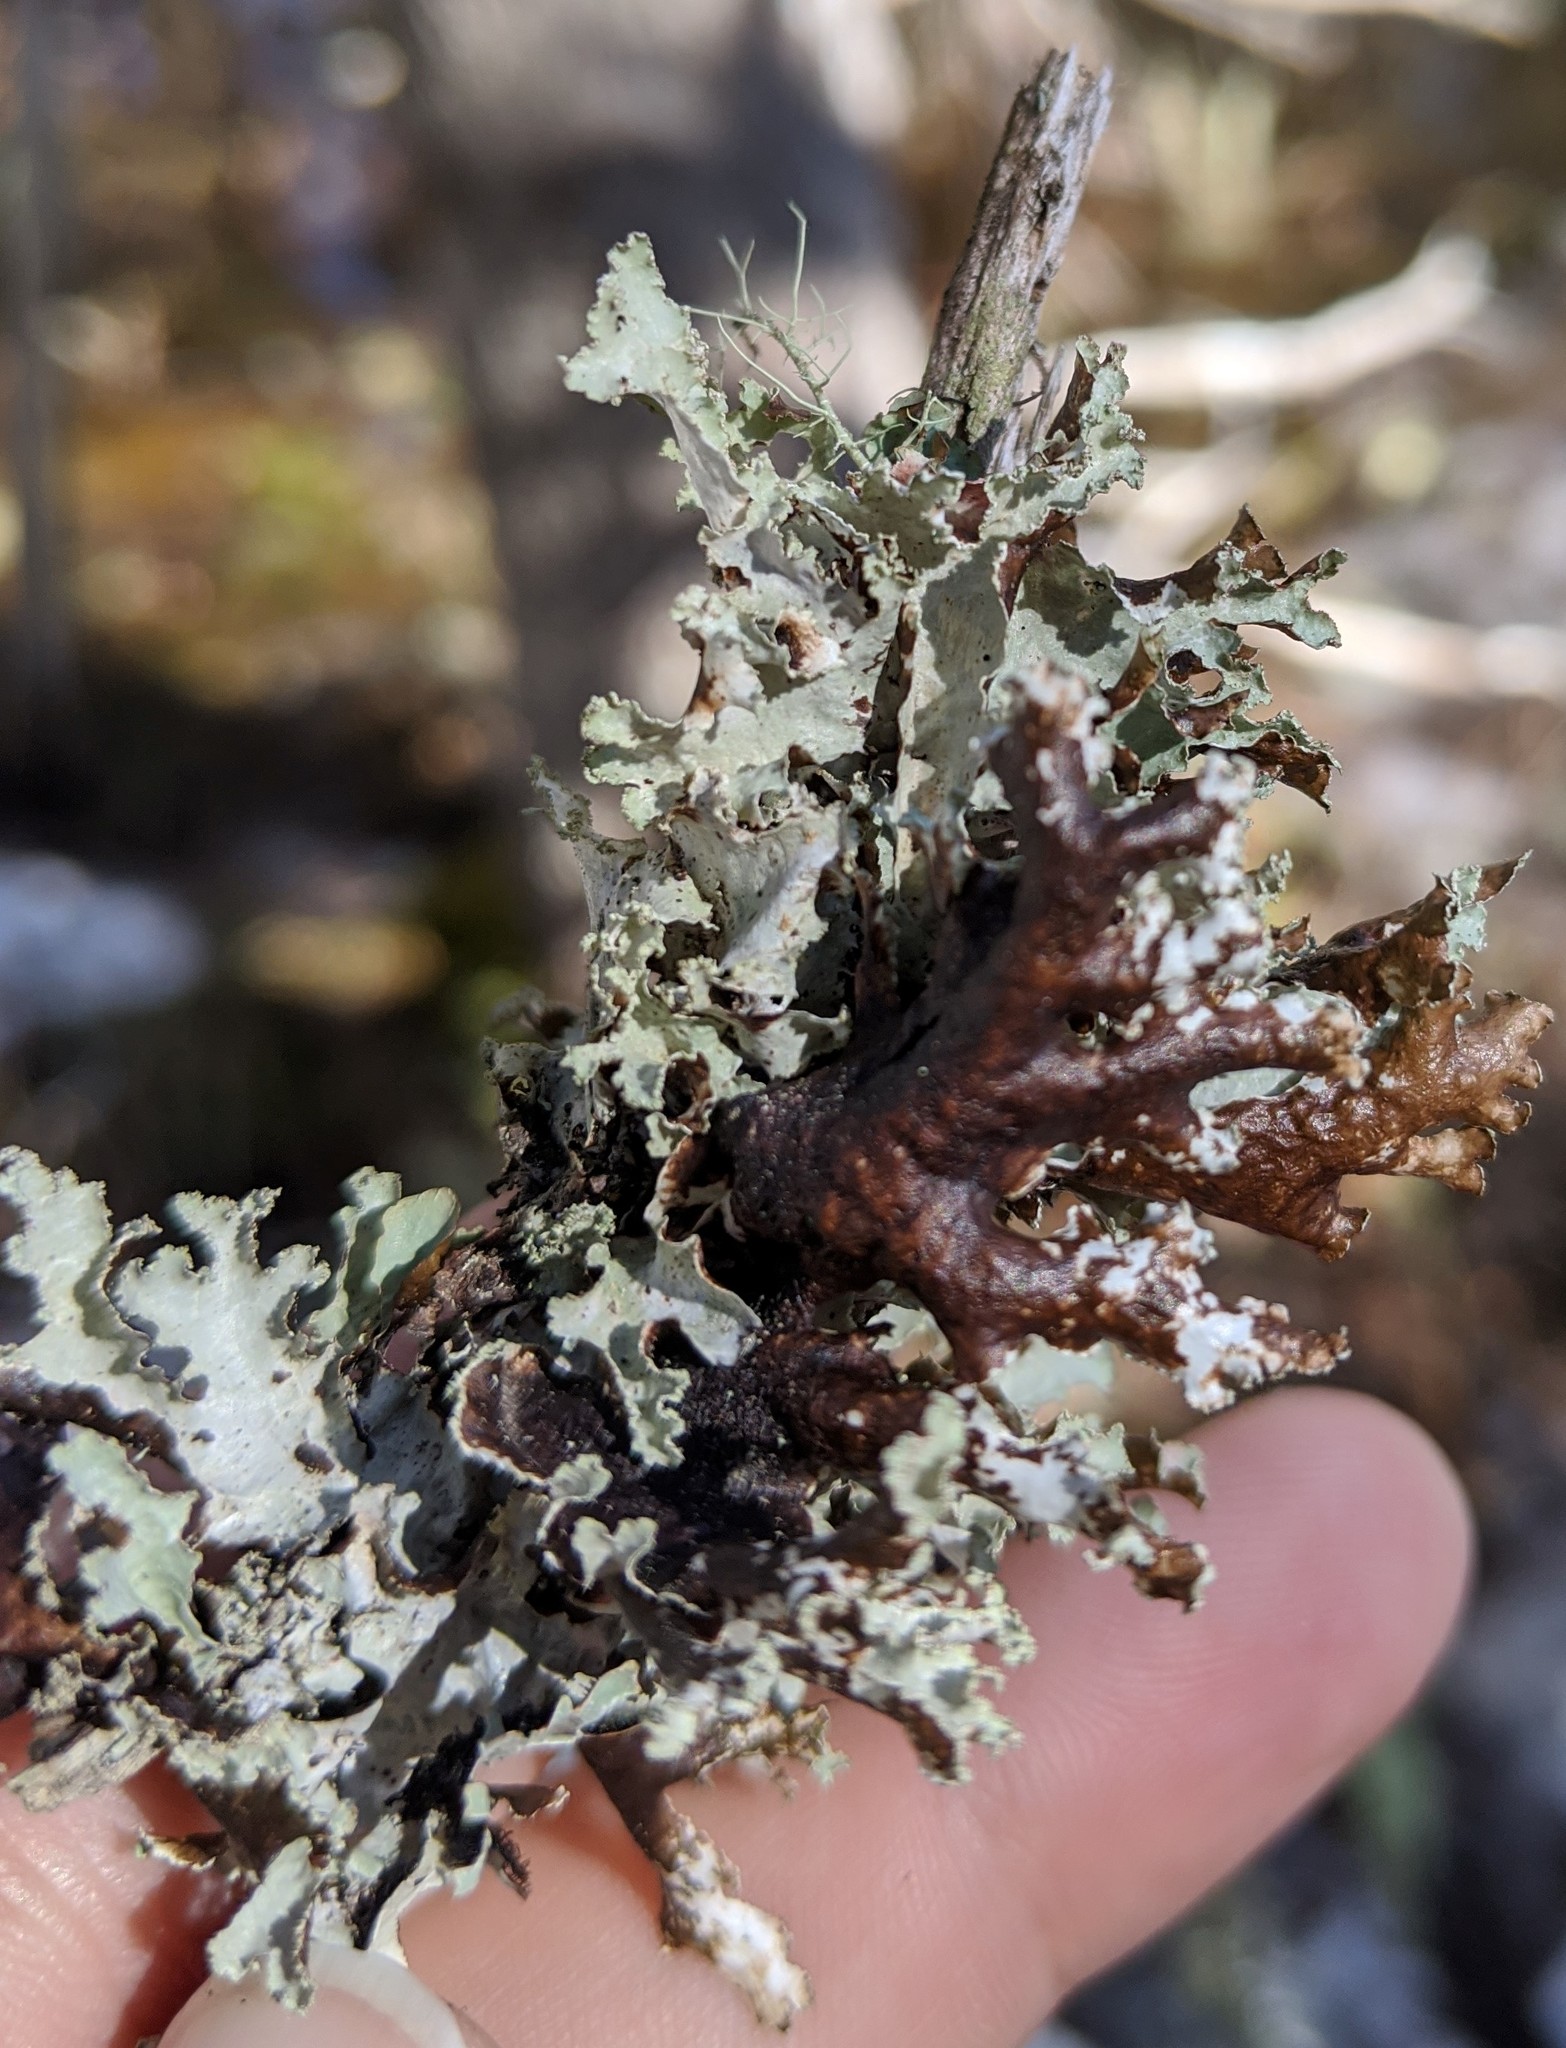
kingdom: Fungi
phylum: Ascomycota
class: Lecanoromycetes
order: Lecanorales
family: Parmeliaceae
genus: Platismatia
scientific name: Platismatia glauca
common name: Varied rag lichen
